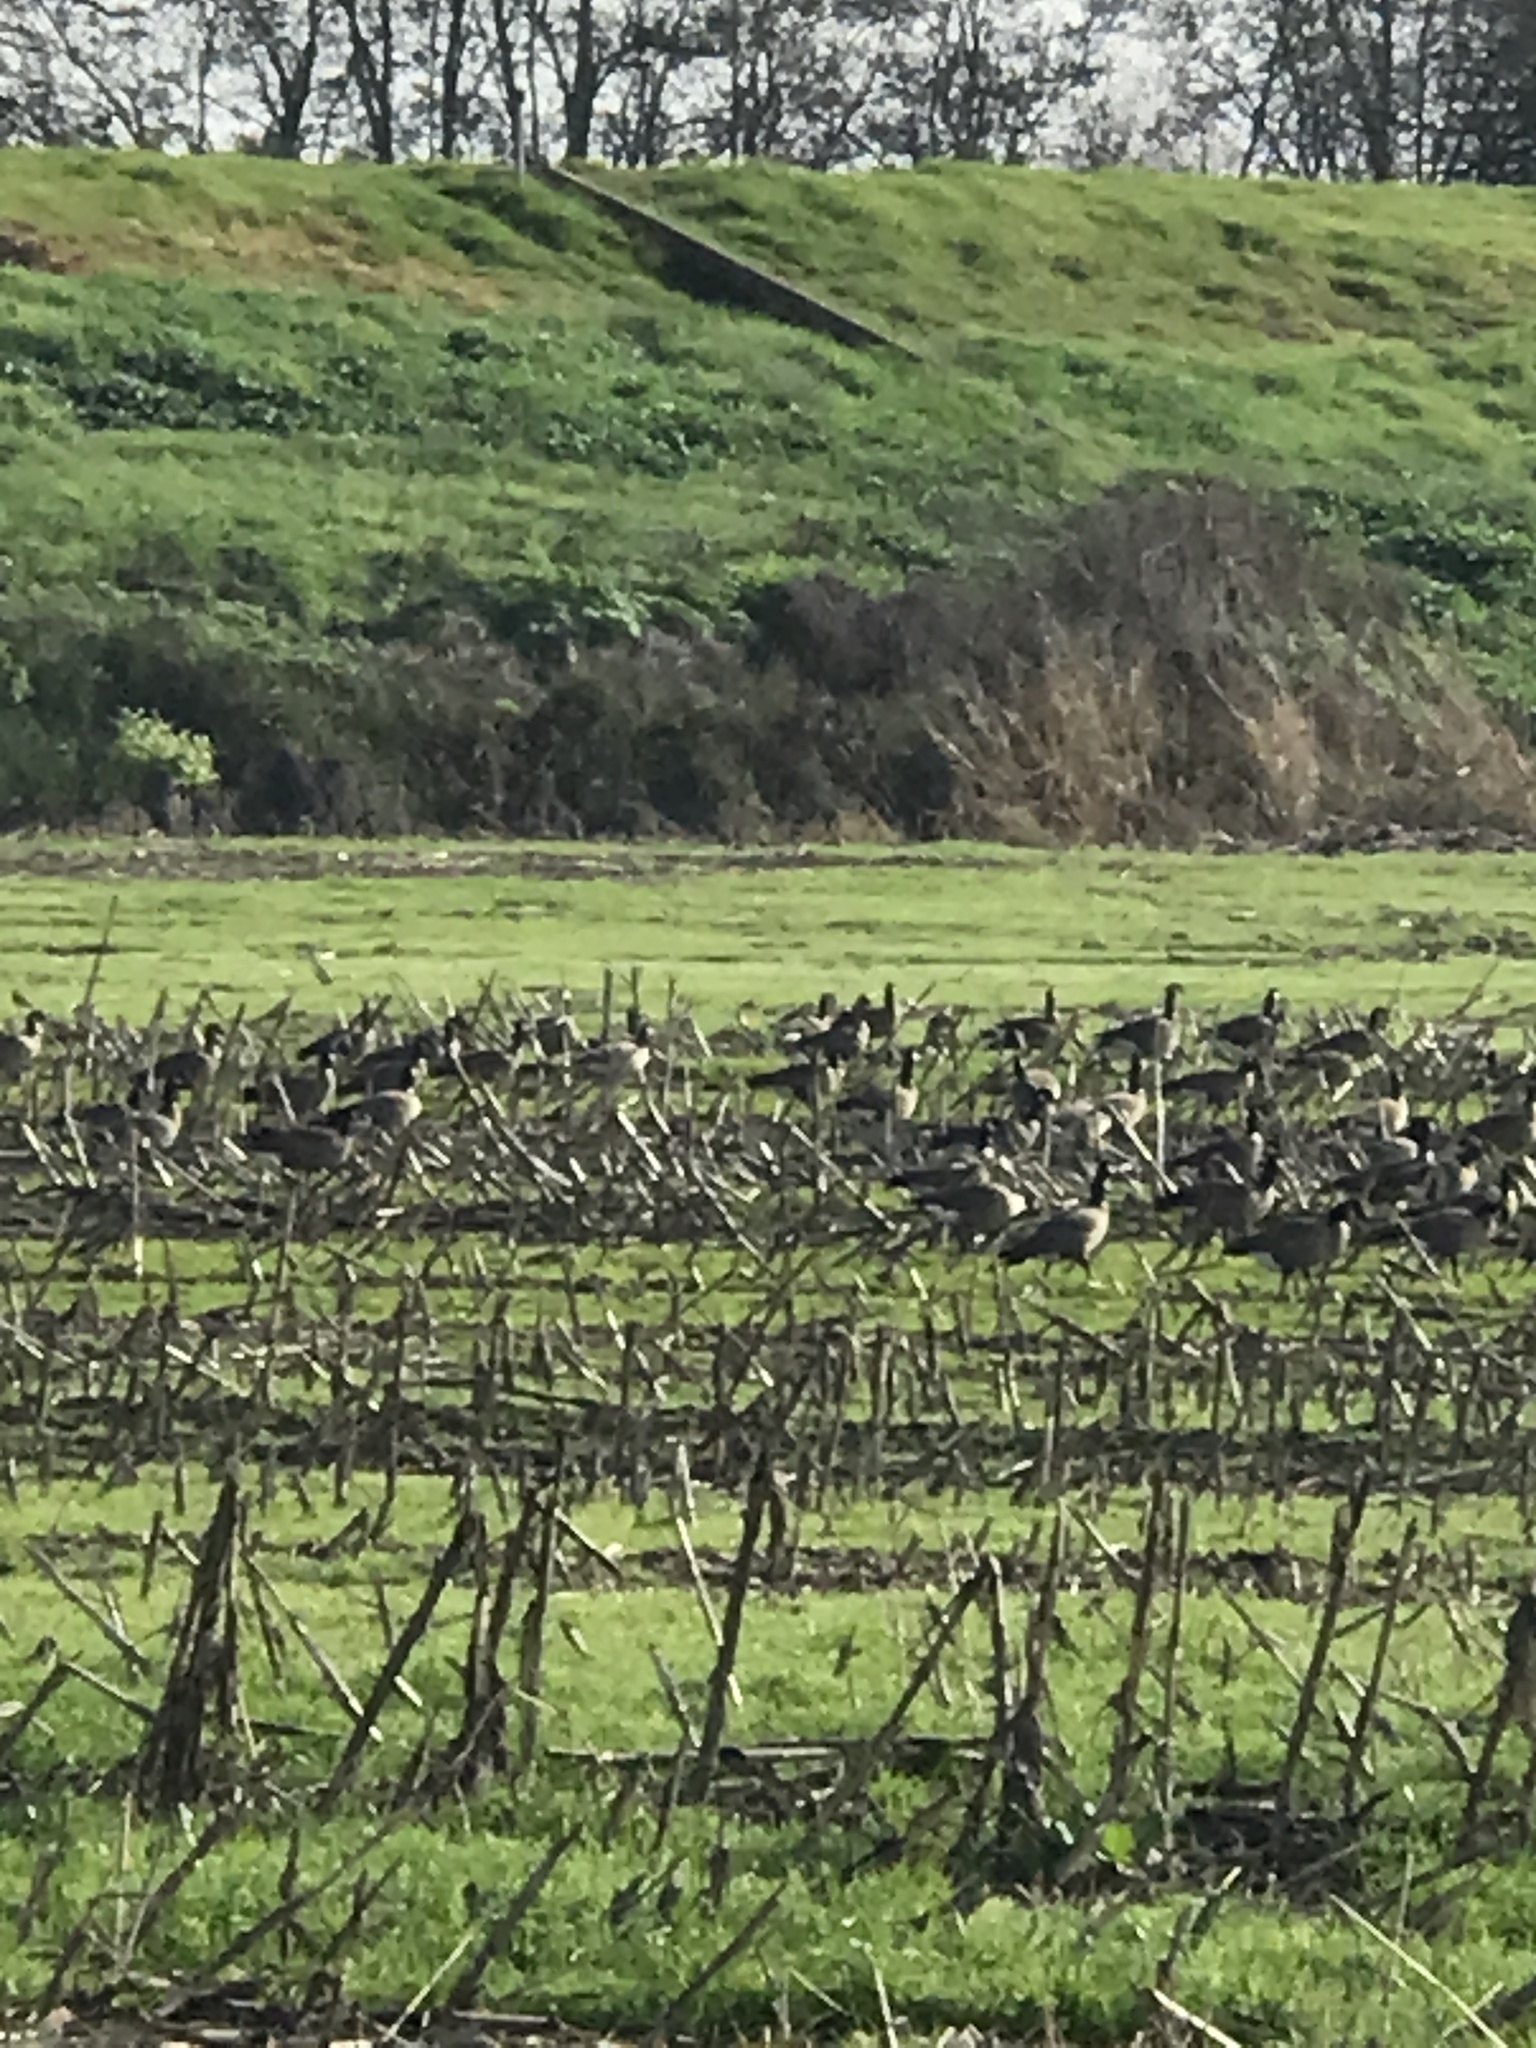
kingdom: Animalia
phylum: Chordata
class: Aves
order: Anseriformes
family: Anatidae
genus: Branta
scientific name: Branta hutchinsii
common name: Cackling goose
